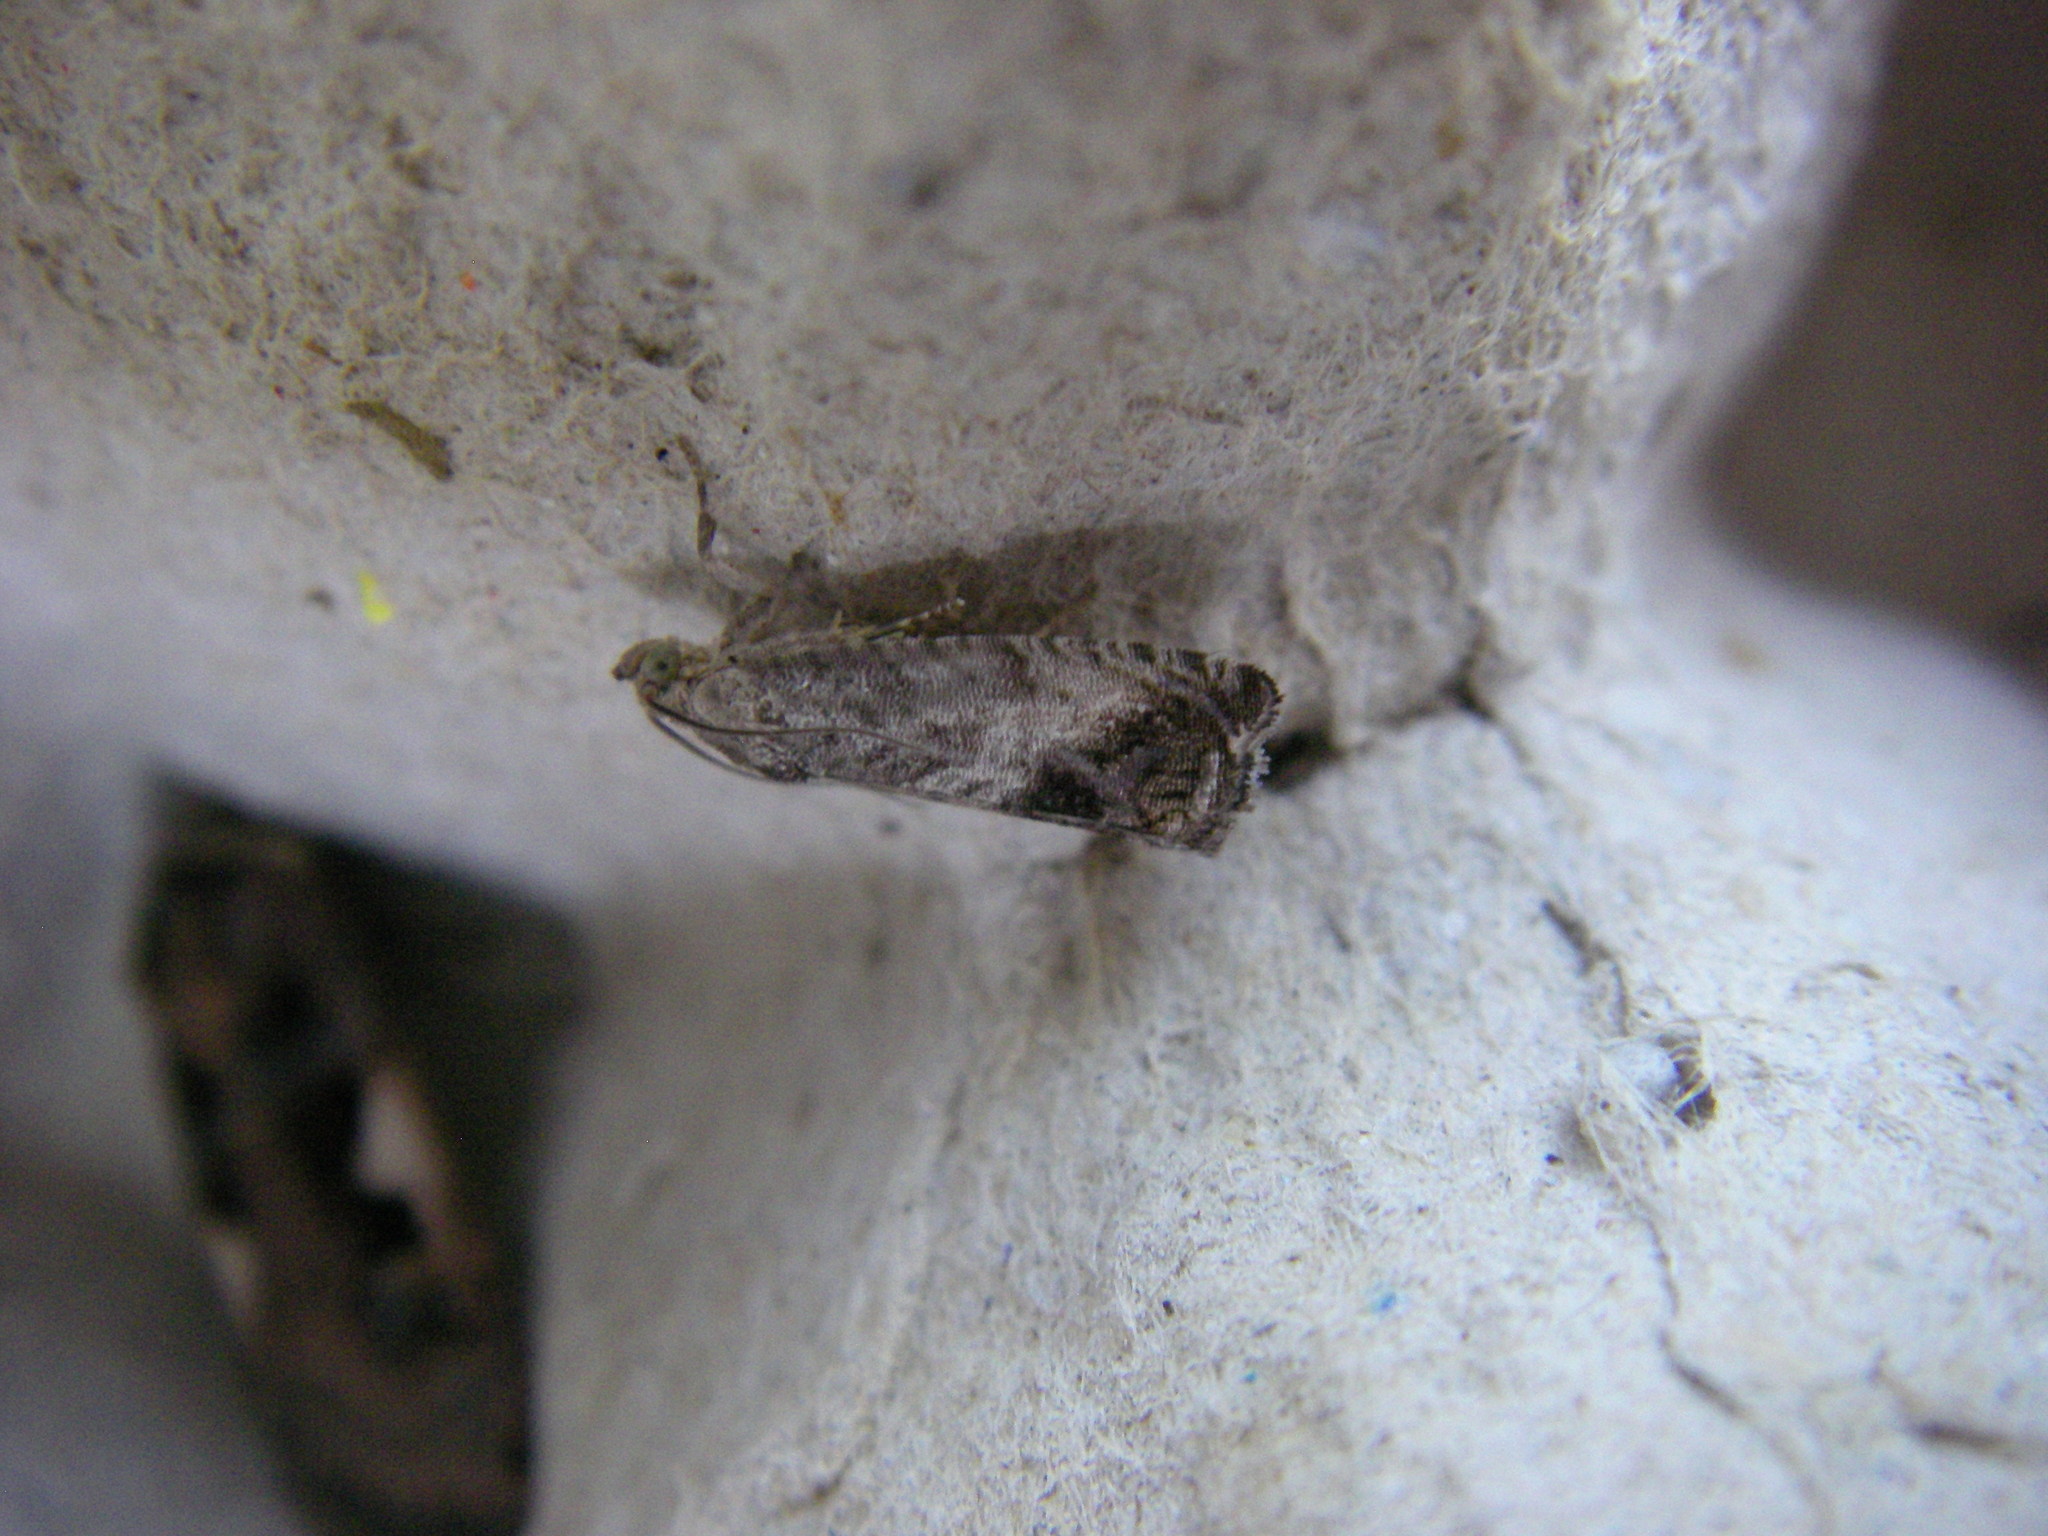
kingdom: Animalia
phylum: Arthropoda
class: Insecta
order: Lepidoptera
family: Tortricidae
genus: Cydia
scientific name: Cydia splendana
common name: De: kastanienwickler, eichenwickler es: oruga de la castaña fr: carpocapse des châtaignes it: cidia o tortrice tardiva delle castagne pt: bichado das castanhas gb: acorn moth, chestnut fruit tortrix
